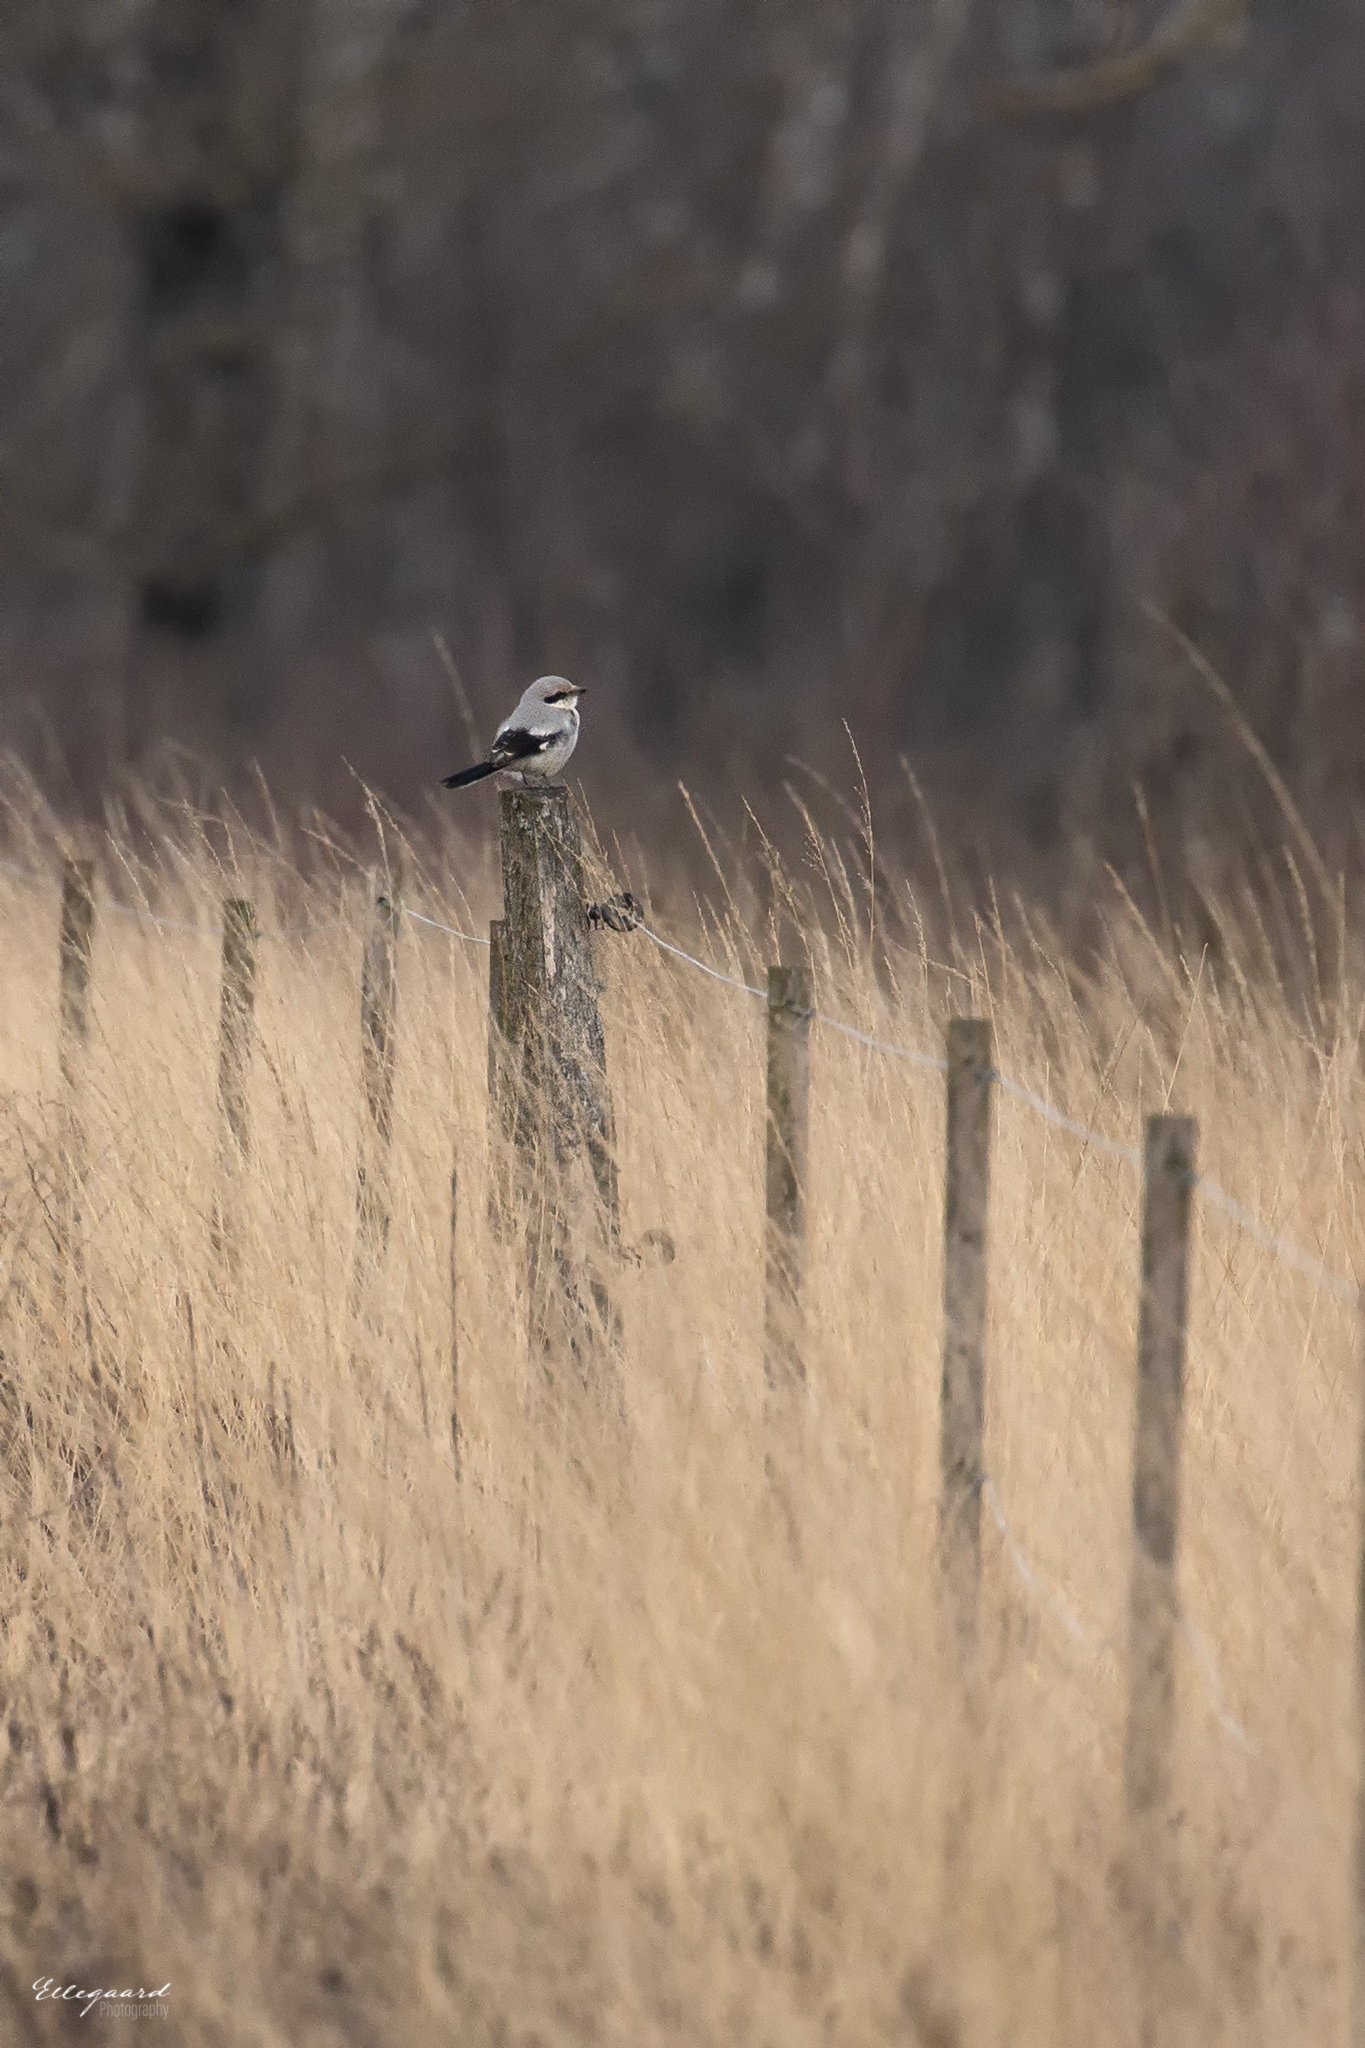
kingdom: Animalia
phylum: Chordata
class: Aves
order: Passeriformes
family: Laniidae
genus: Lanius
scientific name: Lanius excubitor
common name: Great grey shrike
